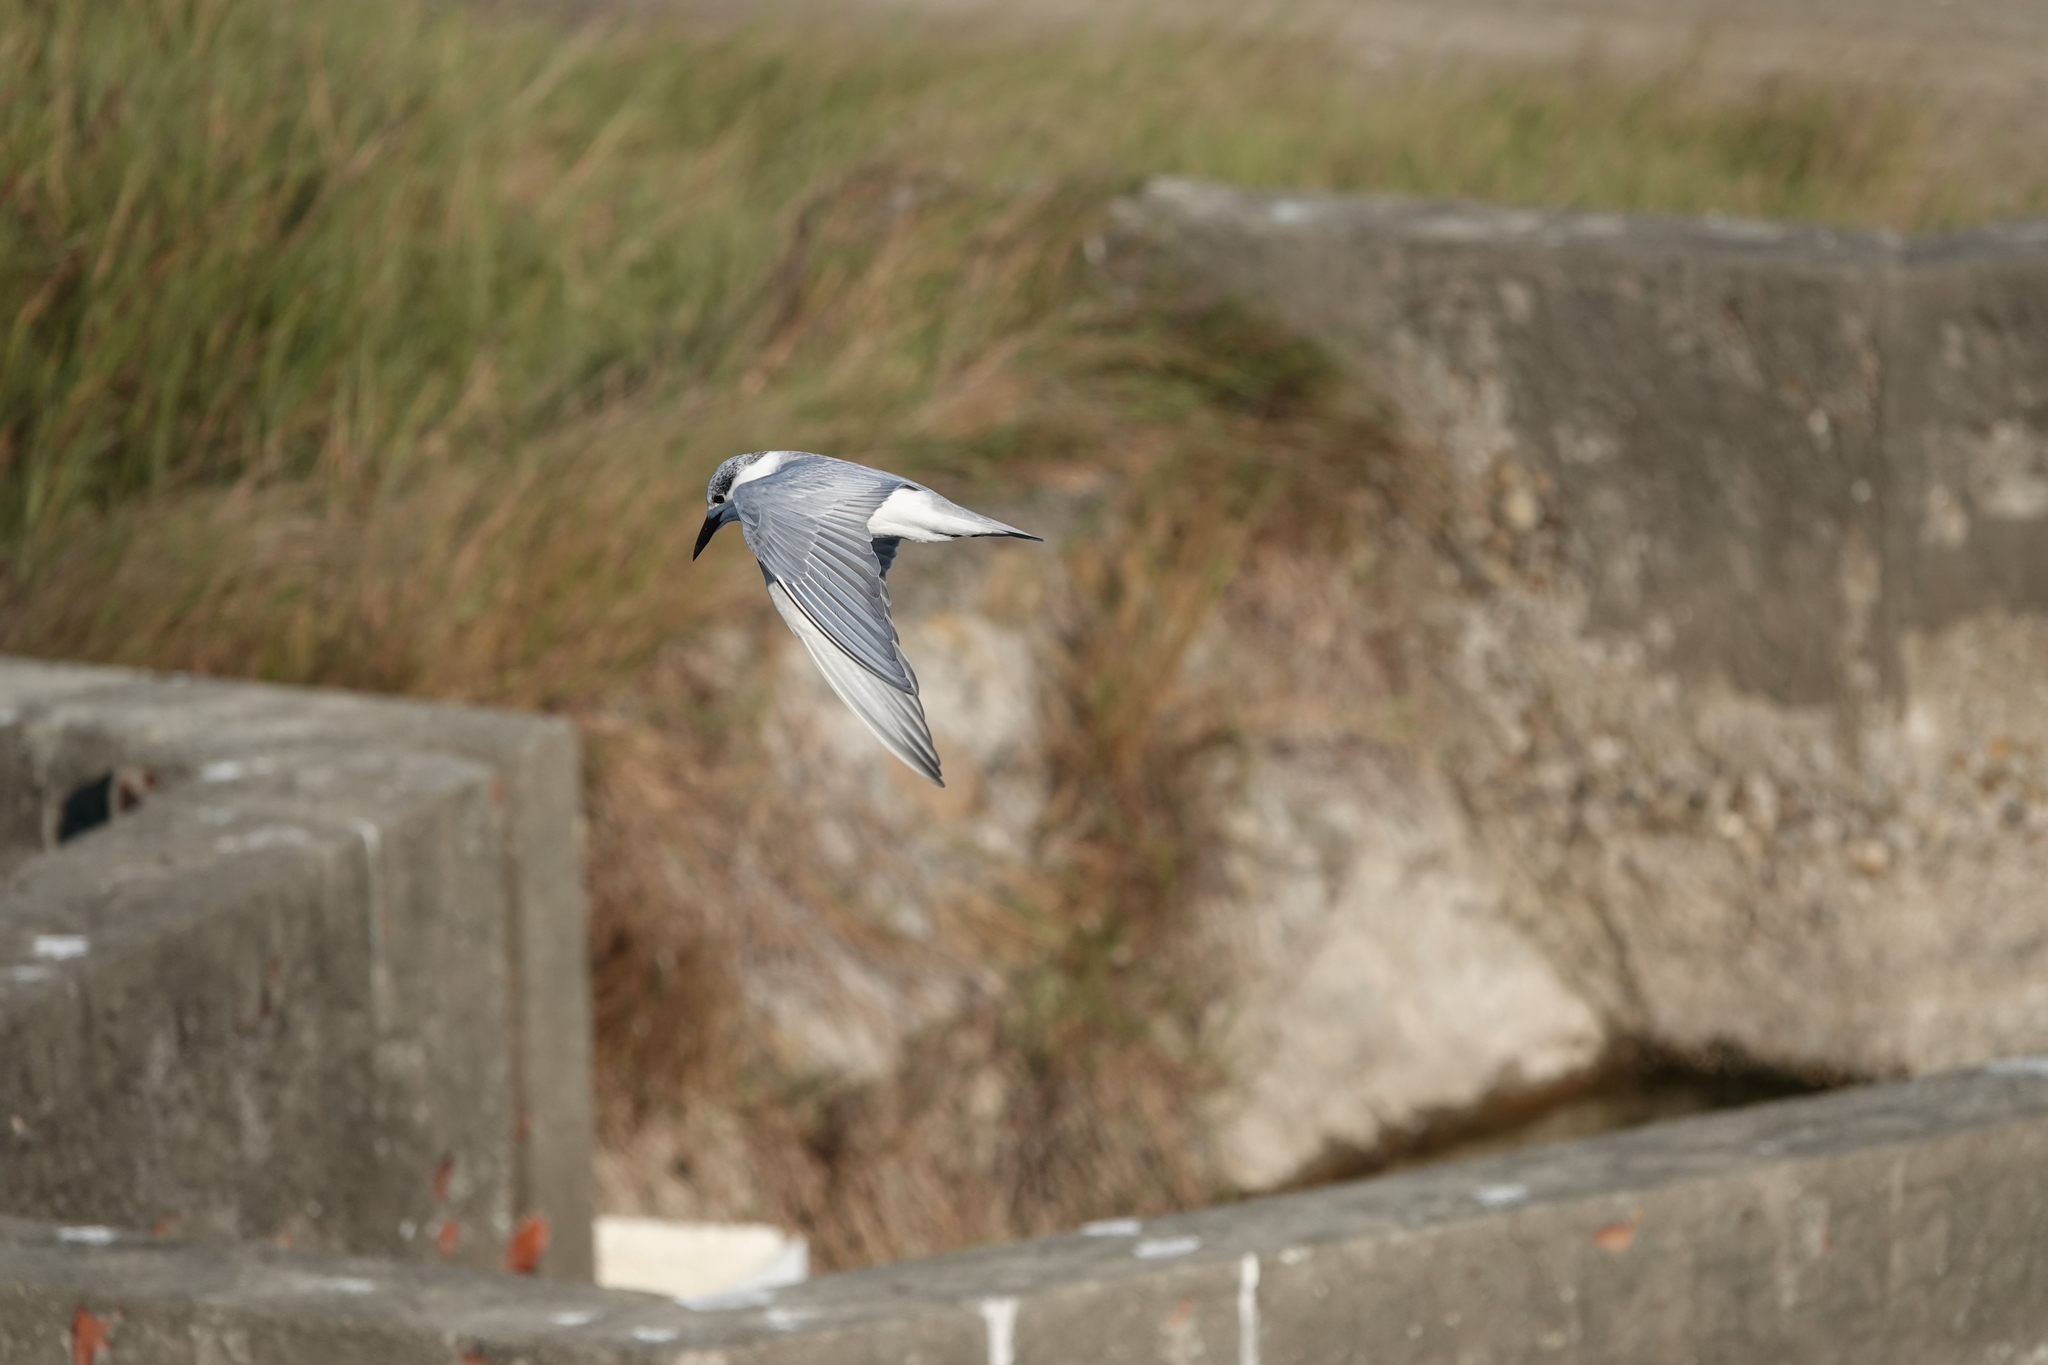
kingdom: Animalia
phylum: Chordata
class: Aves
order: Charadriiformes
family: Laridae
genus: Chlidonias
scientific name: Chlidonias hybrida
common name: Whiskered tern
